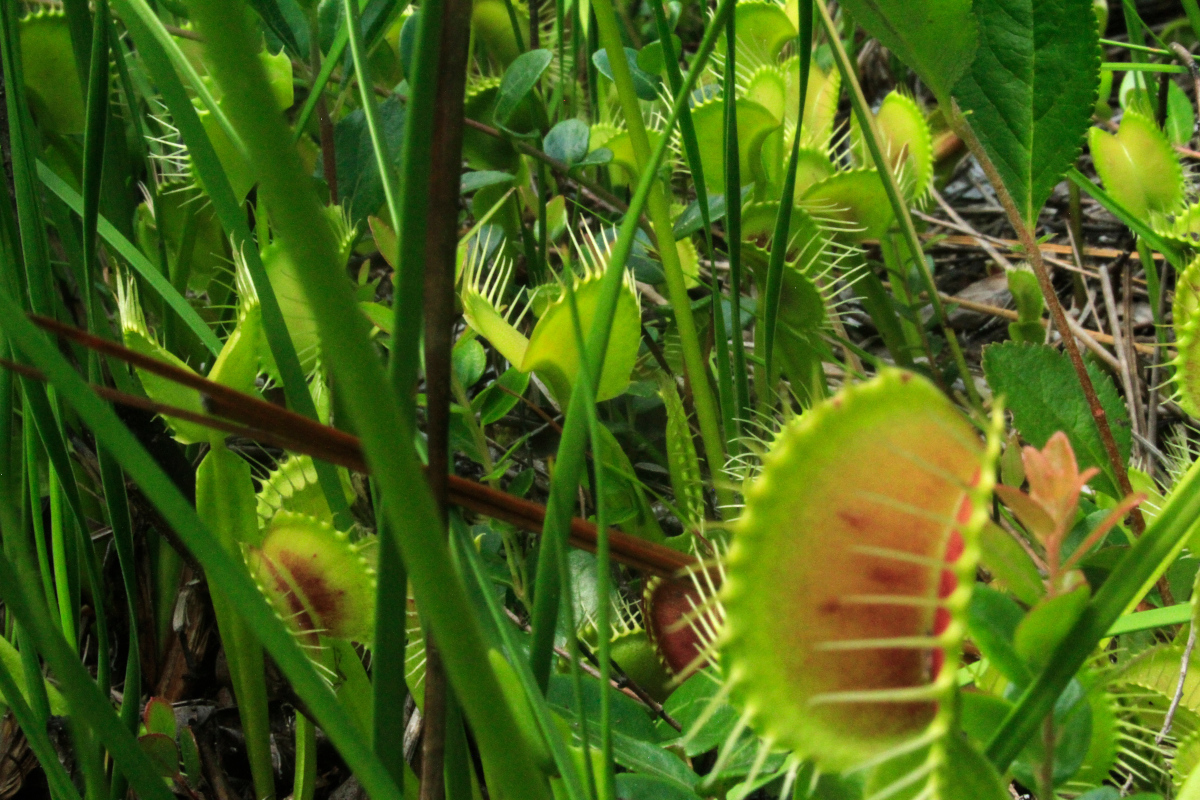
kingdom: Plantae
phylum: Tracheophyta
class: Magnoliopsida
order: Caryophyllales
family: Droseraceae
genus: Dionaea
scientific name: Dionaea muscipula
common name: Venus flytrap
